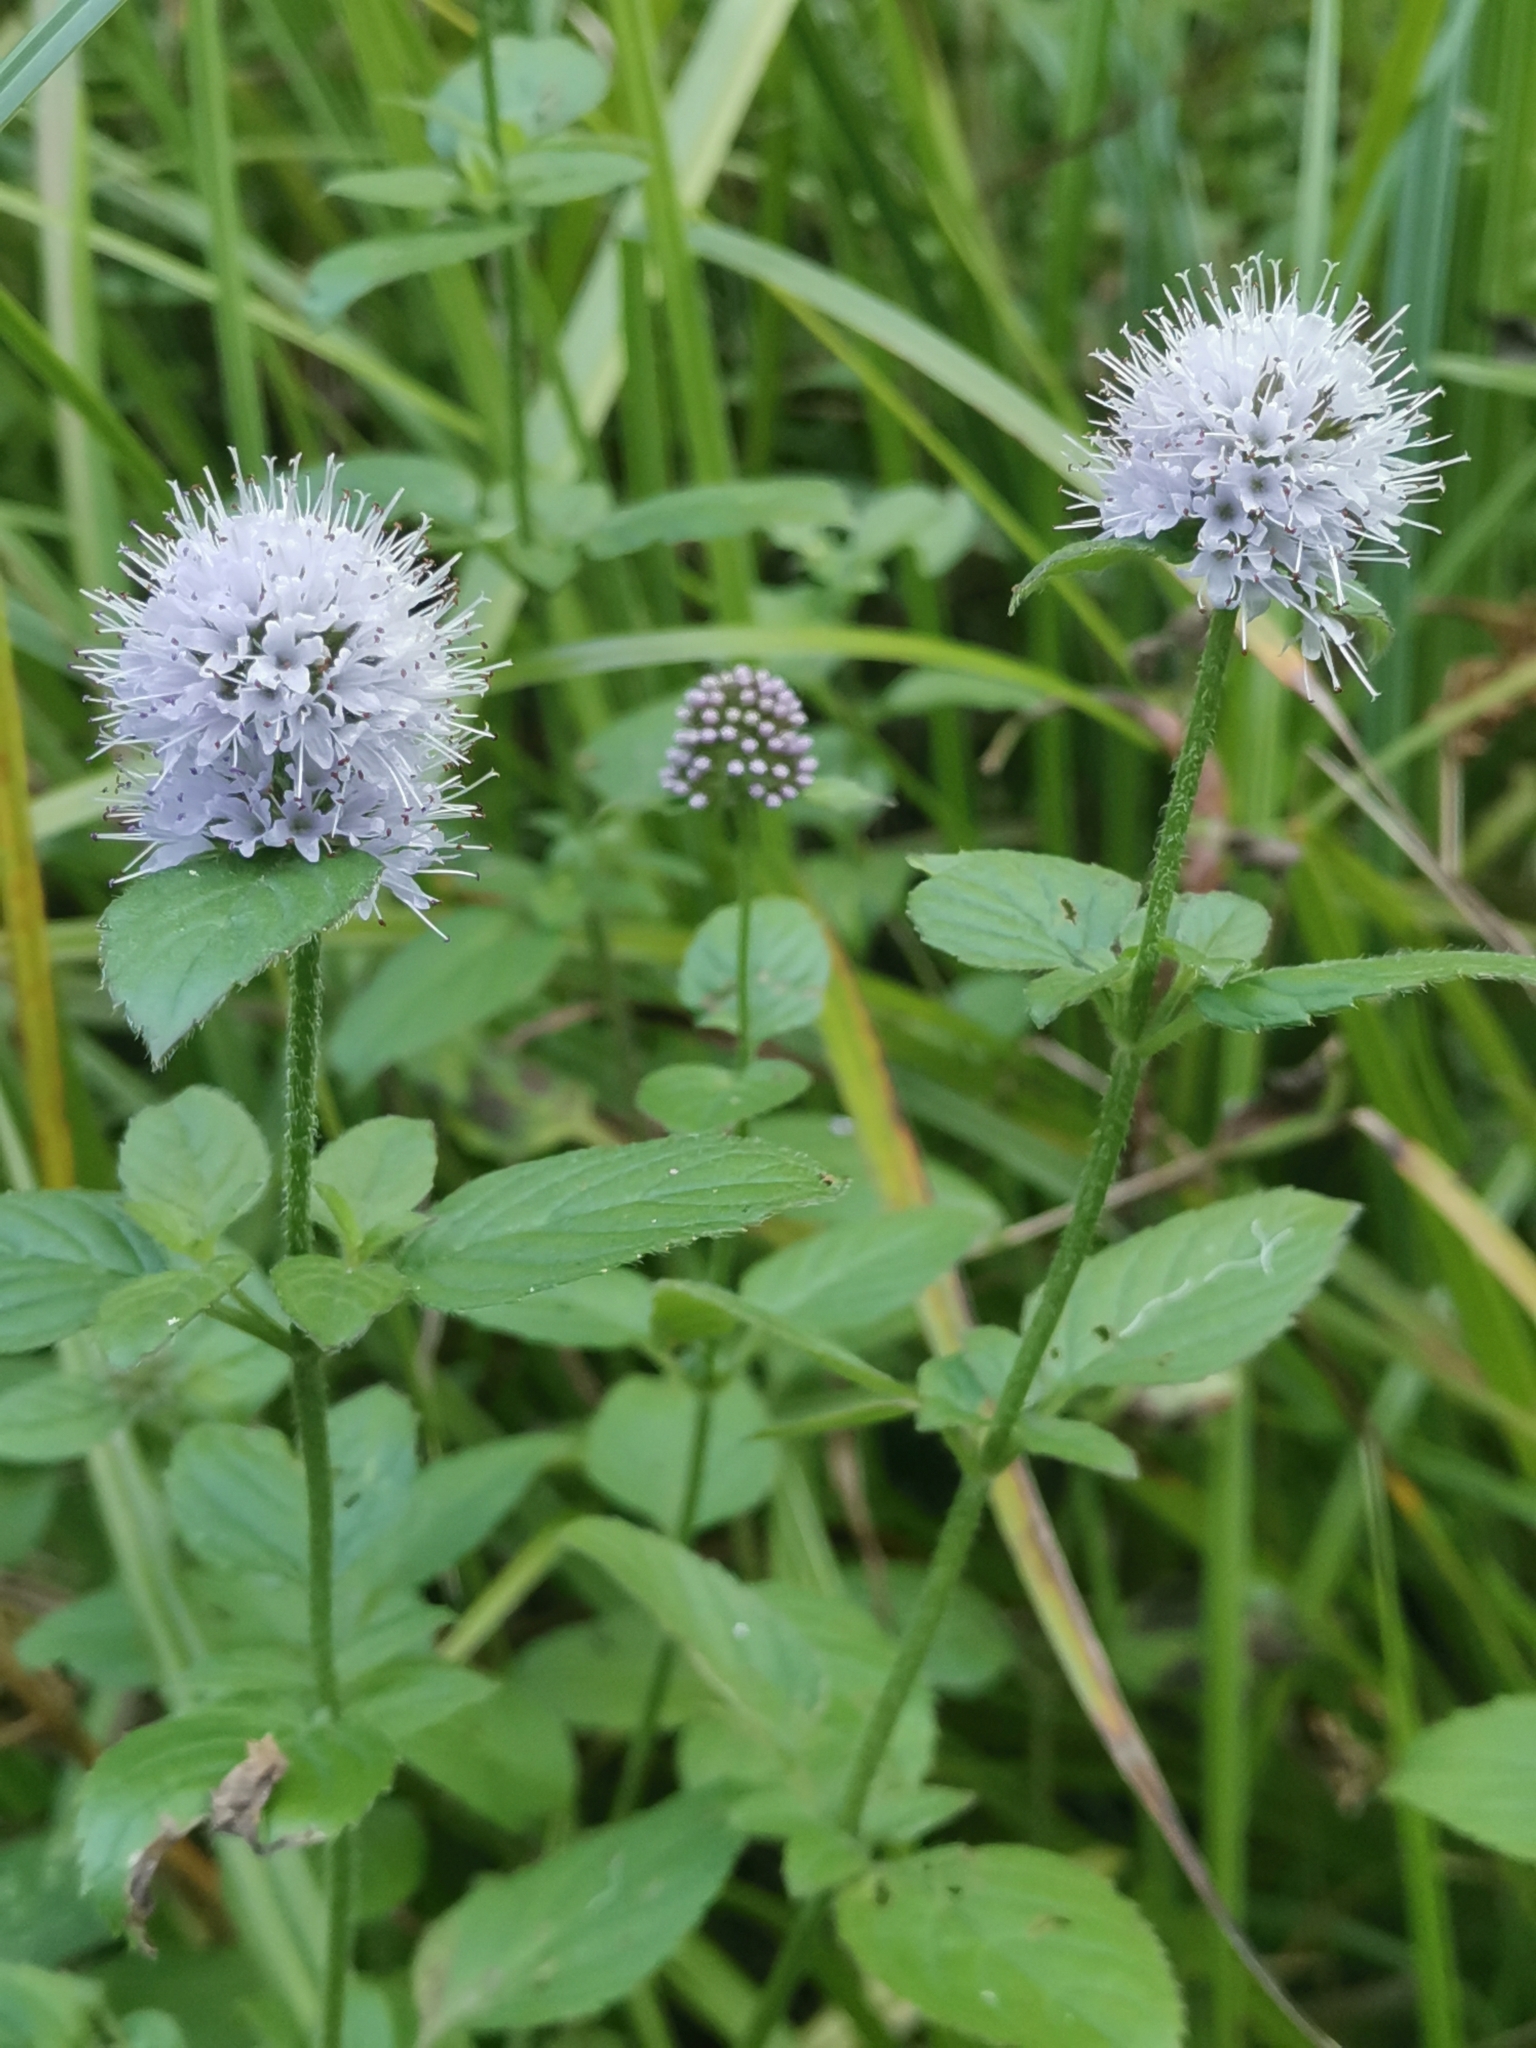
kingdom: Plantae
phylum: Tracheophyta
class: Magnoliopsida
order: Lamiales
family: Lamiaceae
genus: Mentha
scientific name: Mentha aquatica
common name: Water mint
